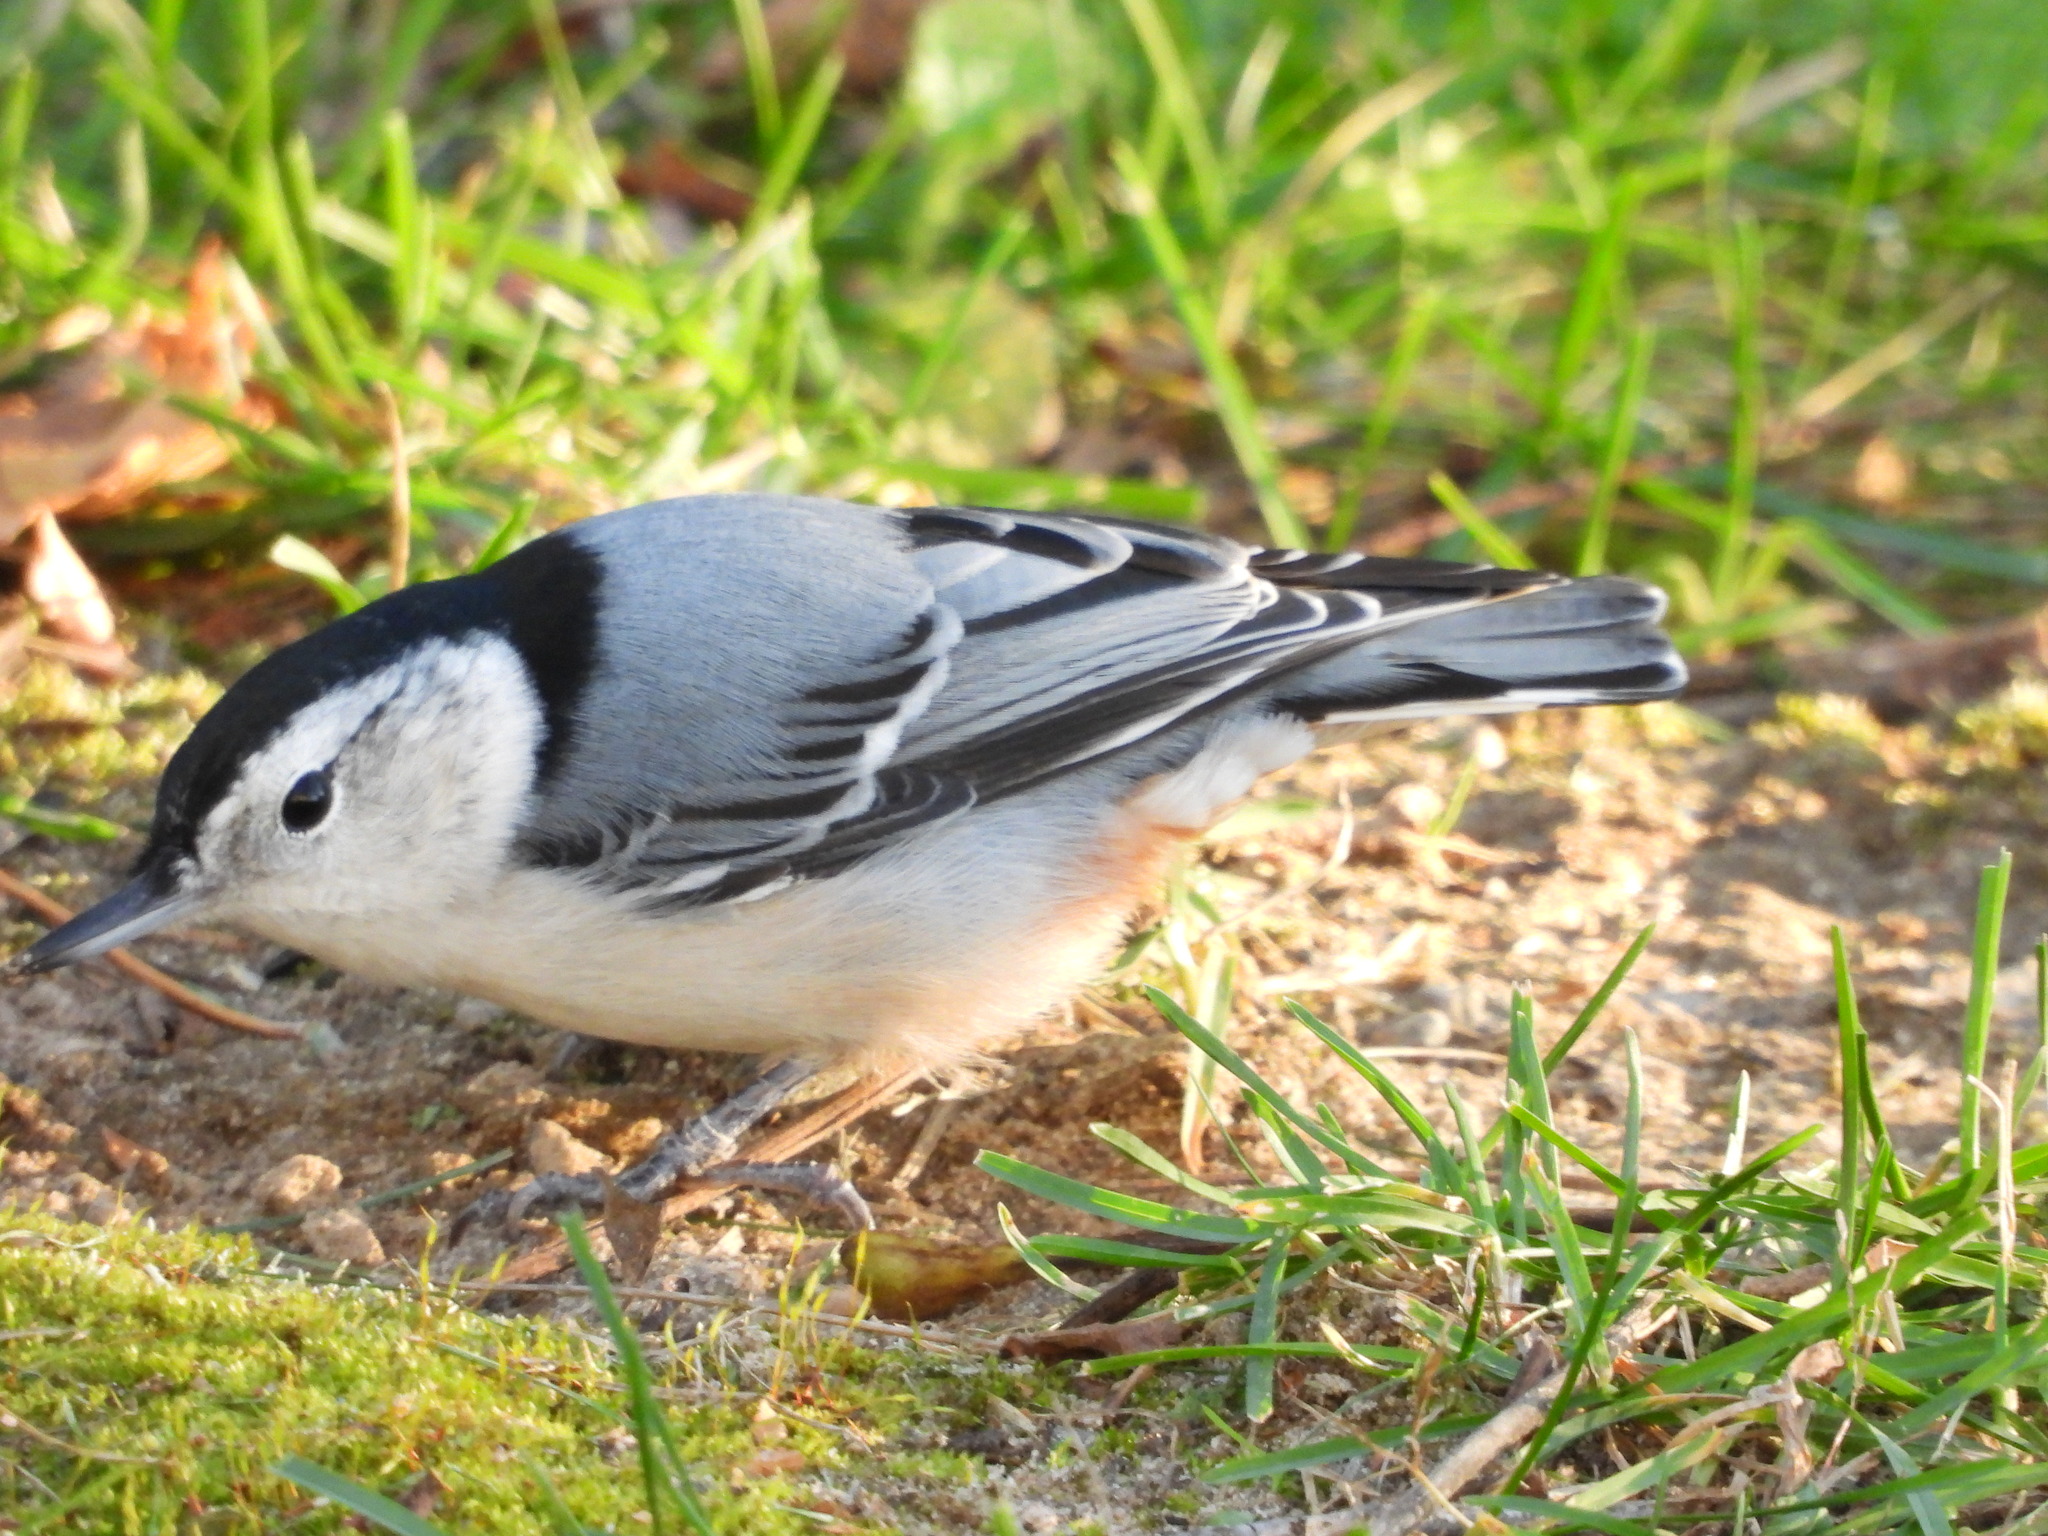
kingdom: Animalia
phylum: Chordata
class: Aves
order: Passeriformes
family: Sittidae
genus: Sitta
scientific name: Sitta carolinensis
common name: White-breasted nuthatch
